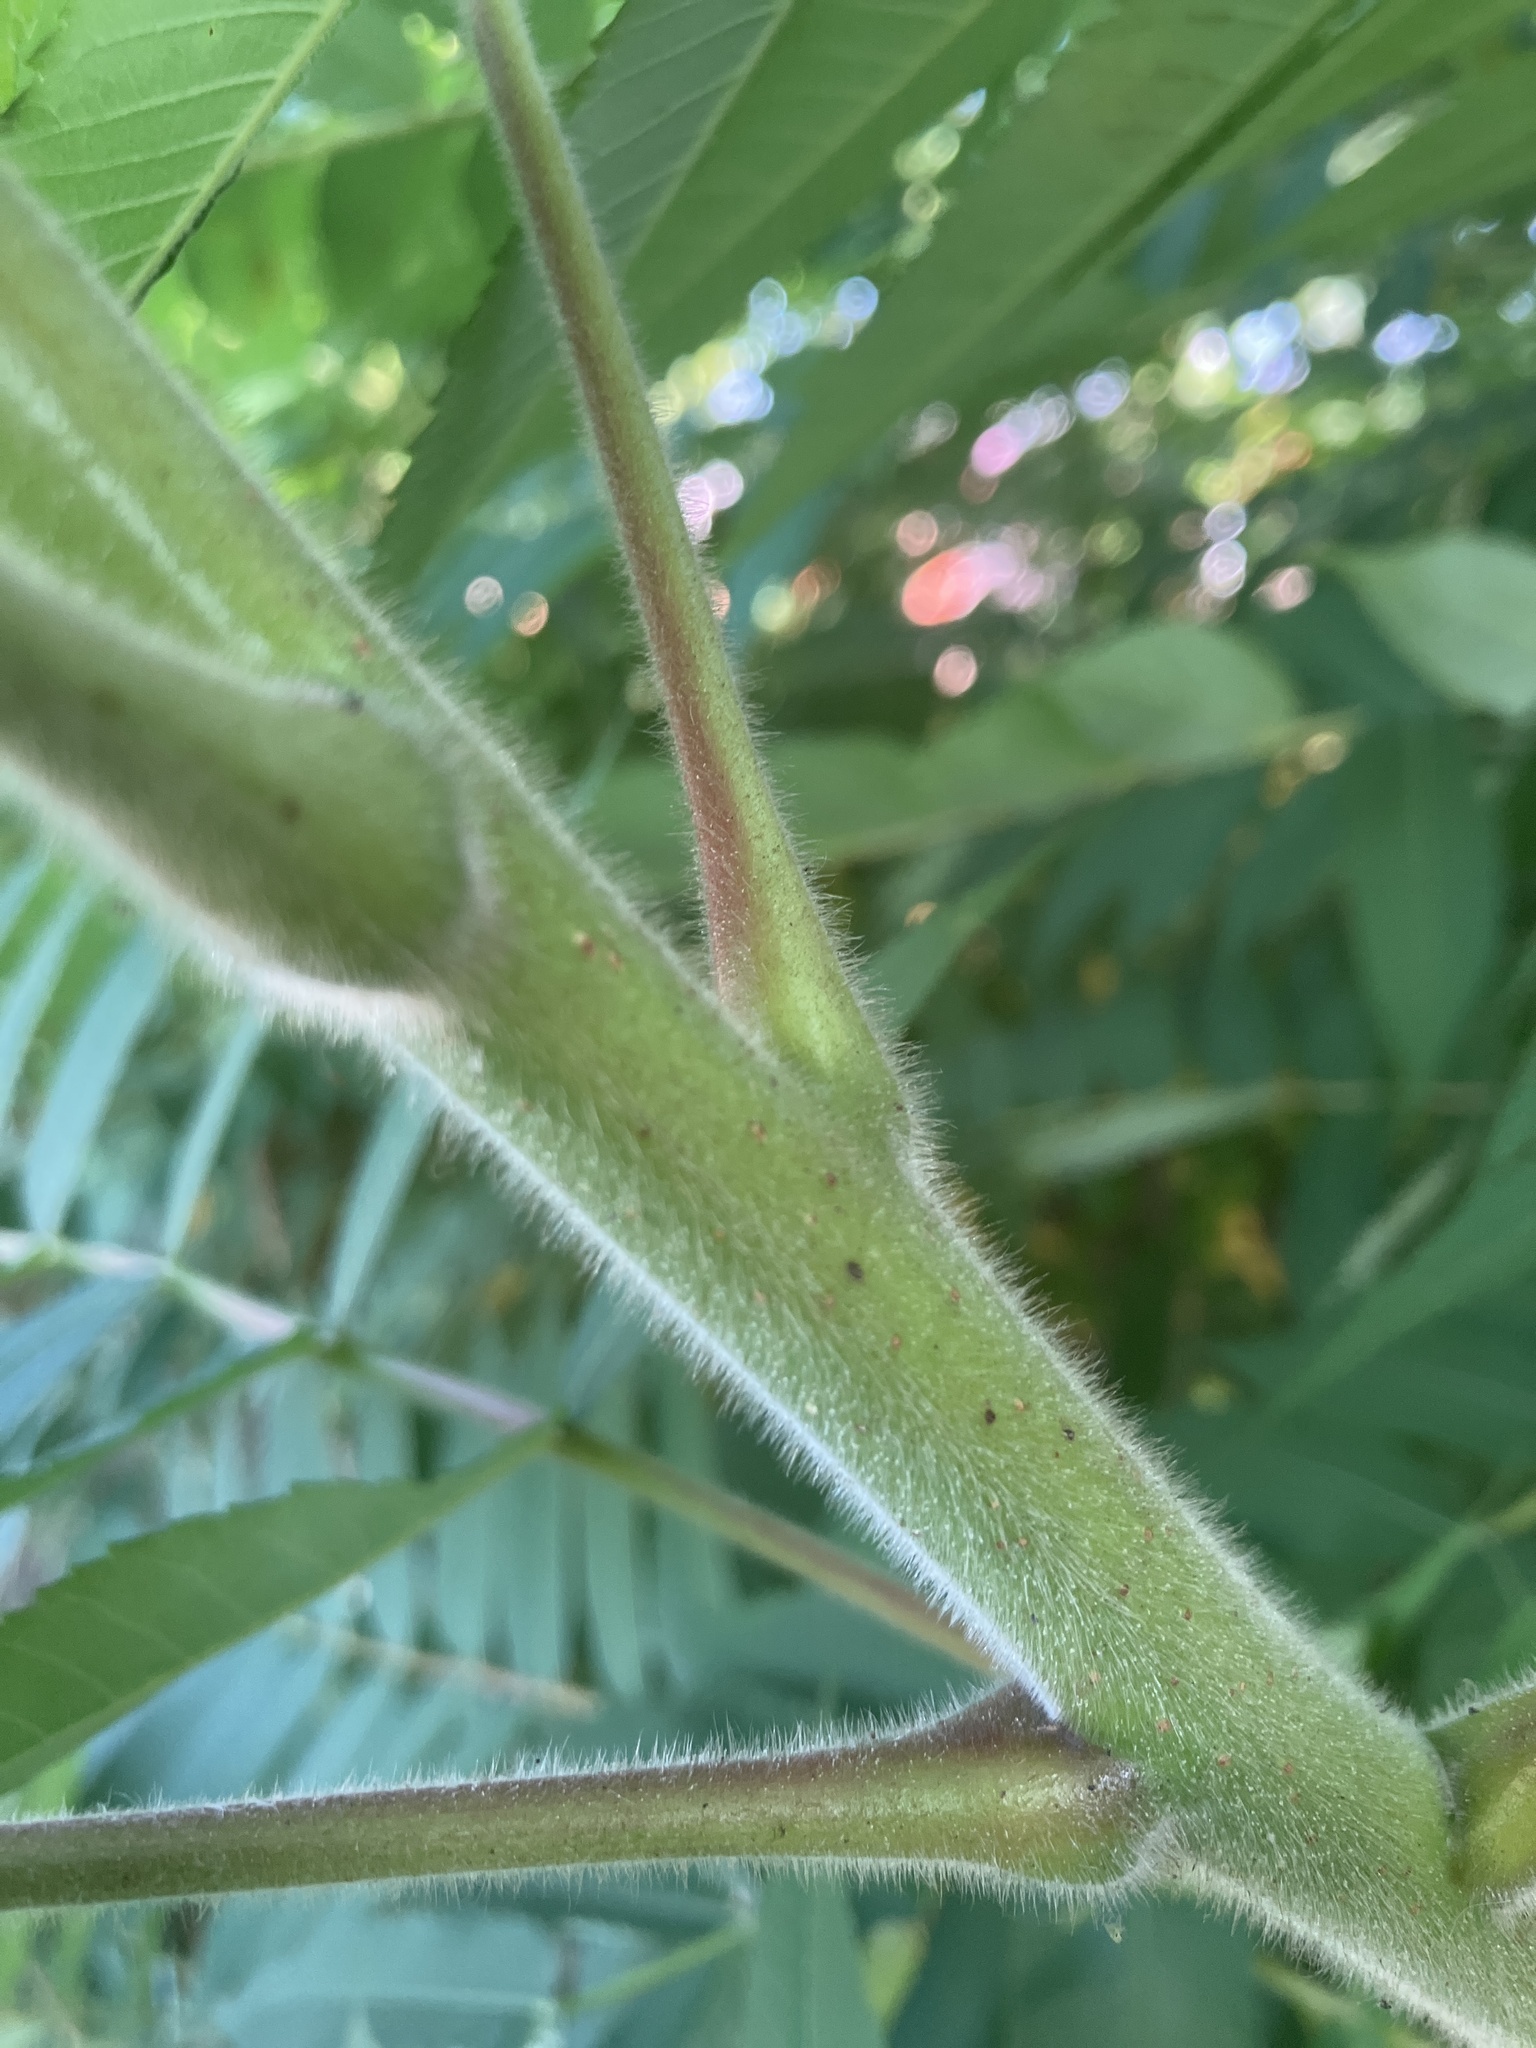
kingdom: Plantae
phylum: Tracheophyta
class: Magnoliopsida
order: Sapindales
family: Anacardiaceae
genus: Rhus
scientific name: Rhus typhina
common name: Staghorn sumac
